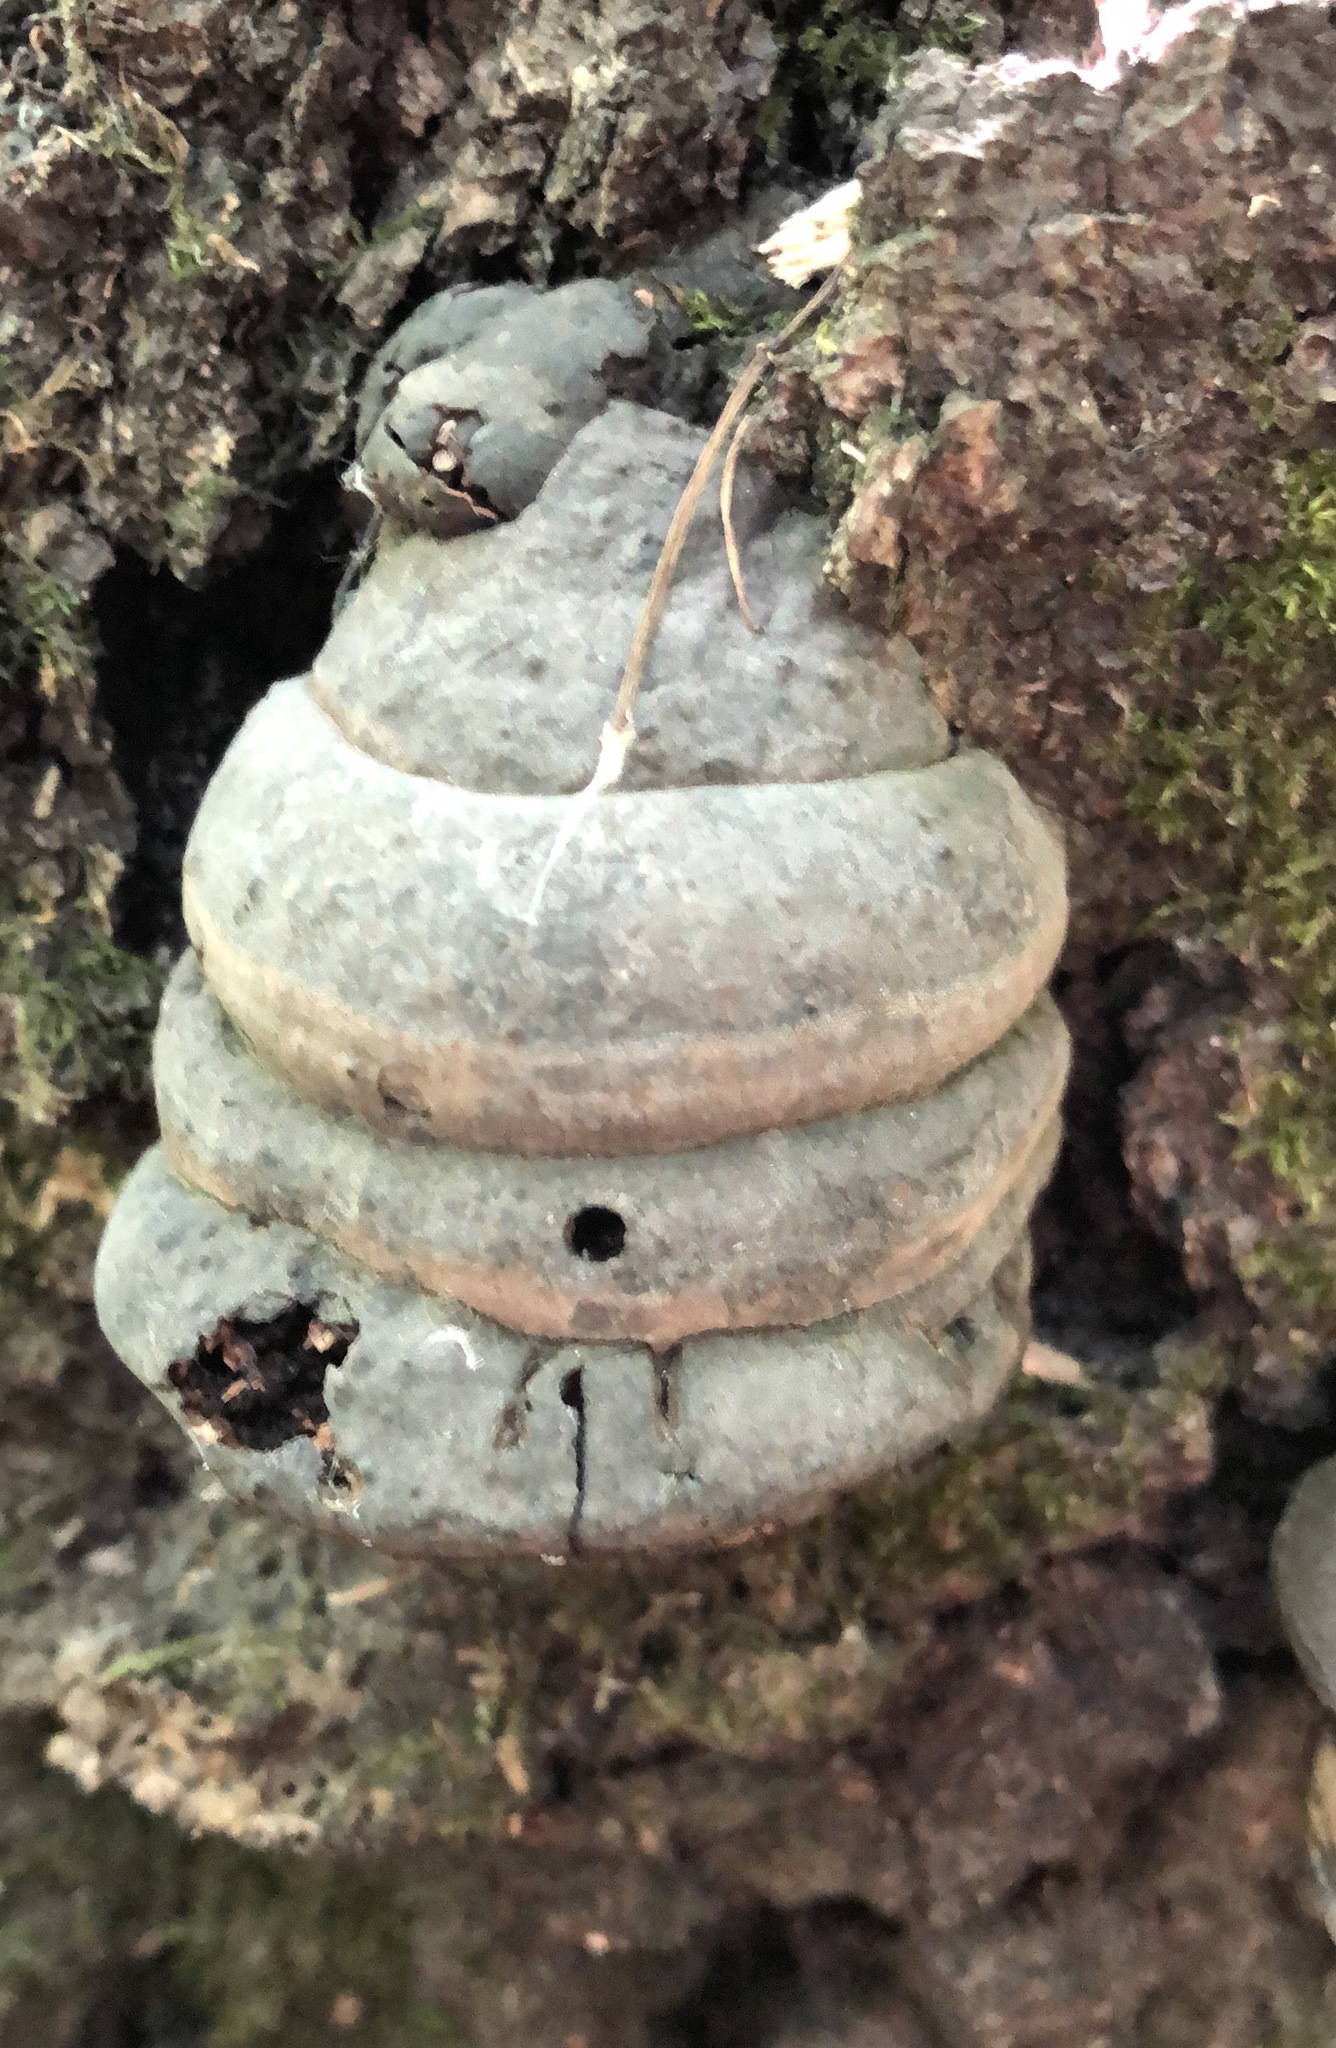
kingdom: Fungi
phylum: Basidiomycota
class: Agaricomycetes
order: Polyporales
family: Polyporaceae
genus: Fomes
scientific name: Fomes fomentarius
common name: Hoof fungus
